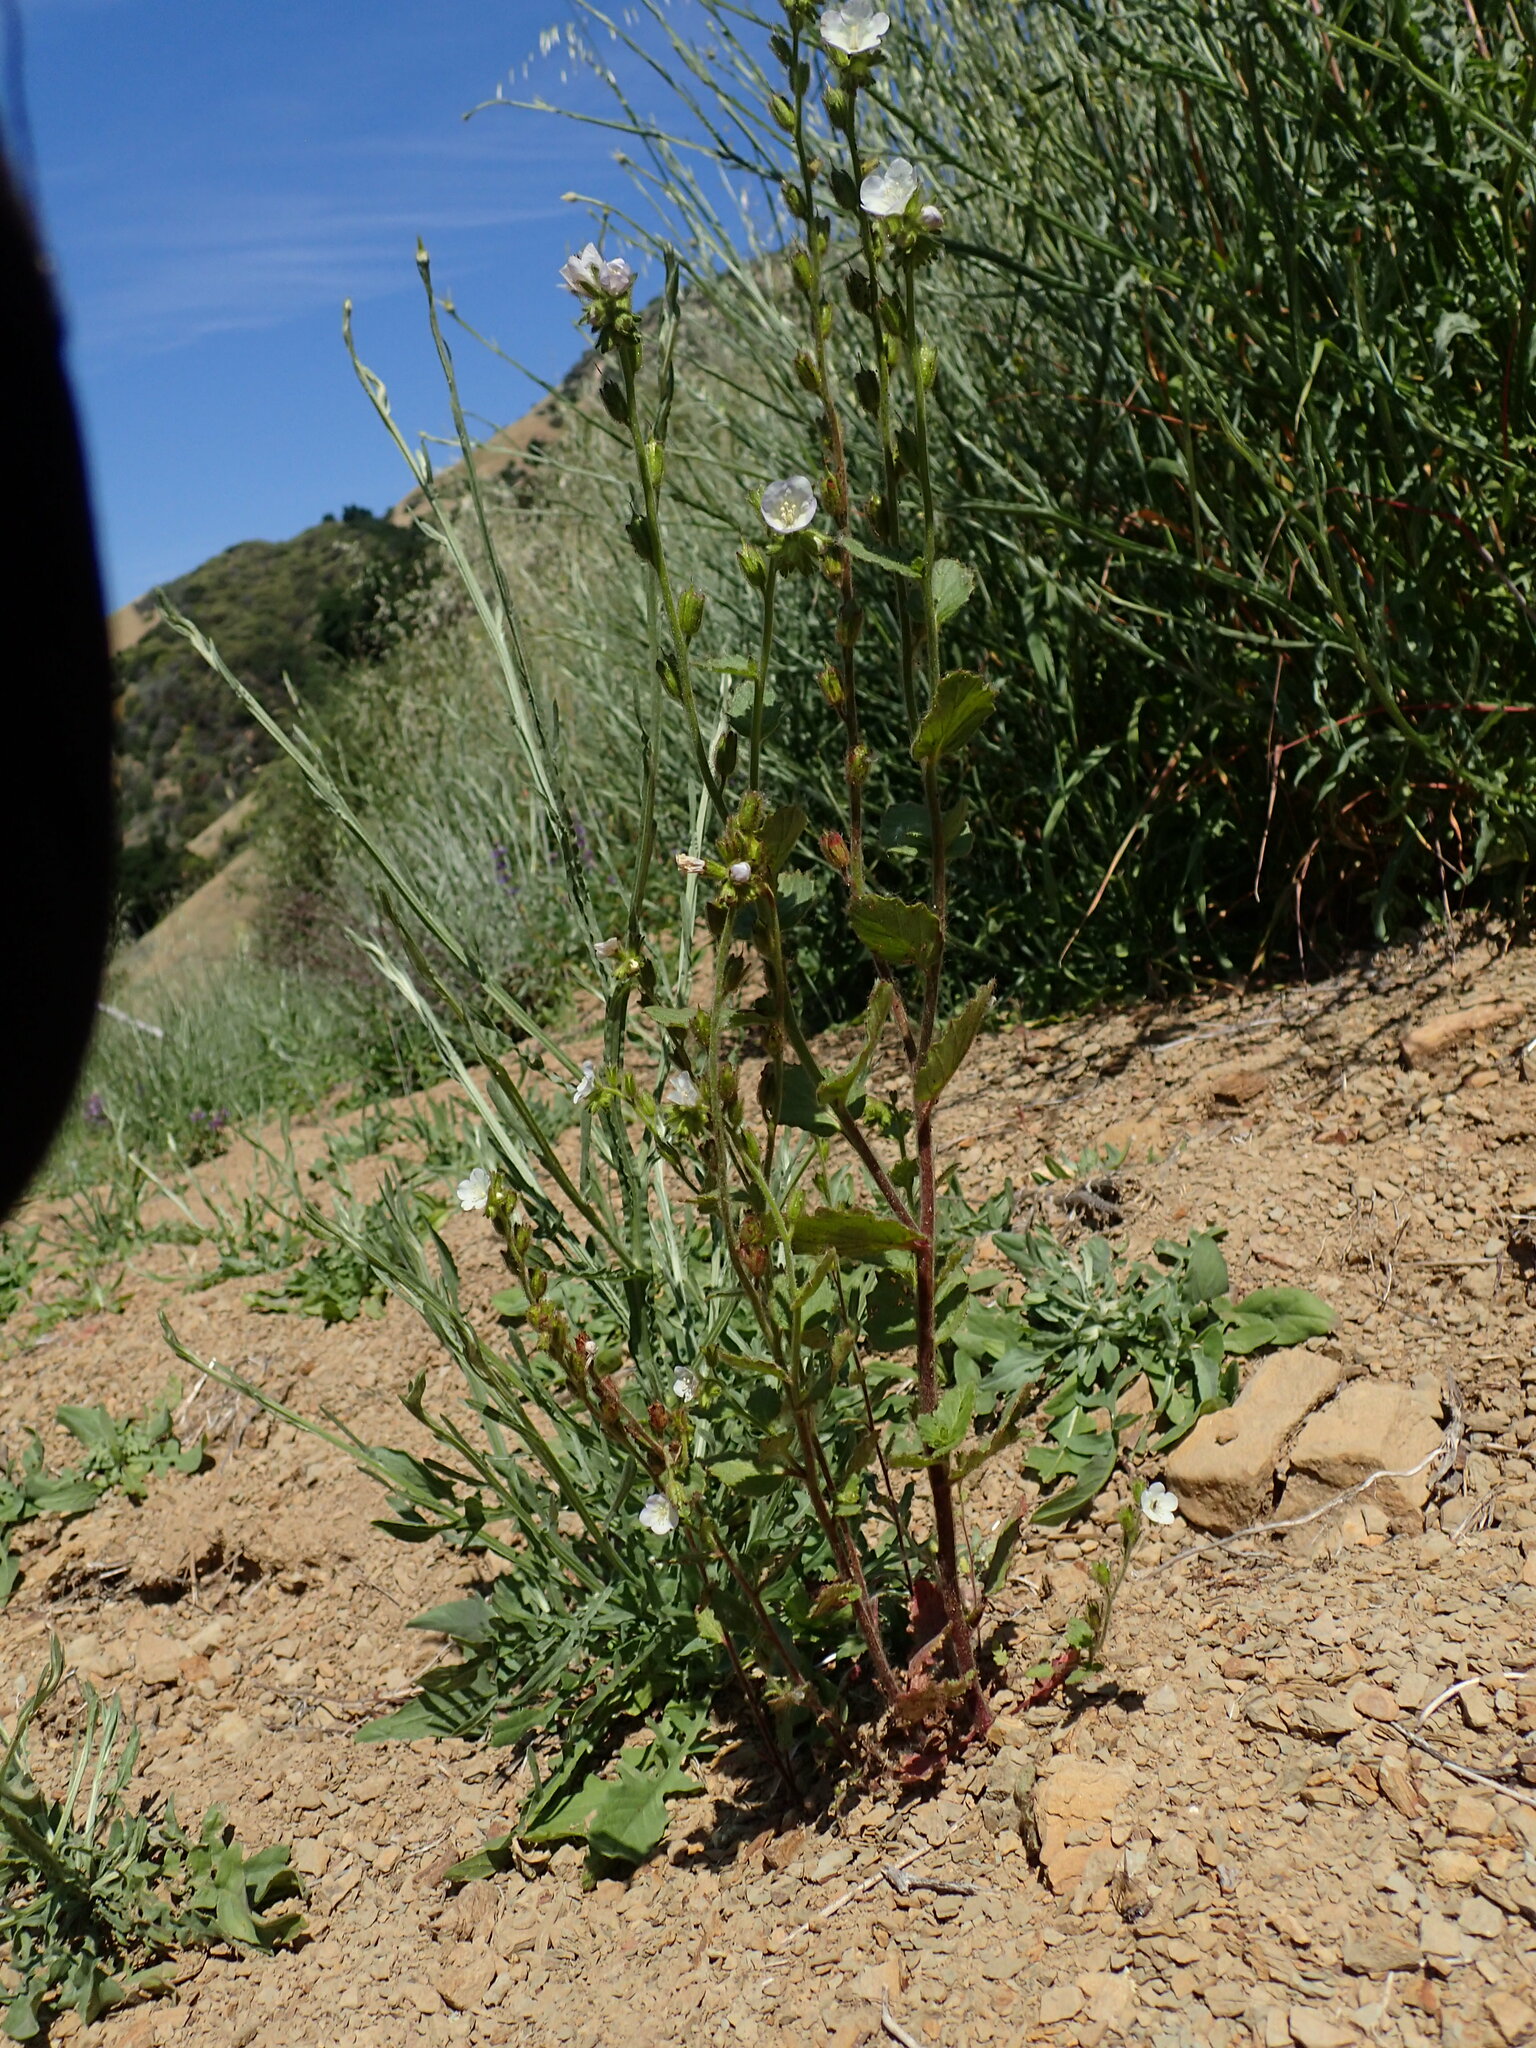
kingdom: Plantae
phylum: Tracheophyta
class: Magnoliopsida
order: Boraginales
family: Hydrophyllaceae
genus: Phacelia
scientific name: Phacelia viscida
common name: Sticky phacelia
